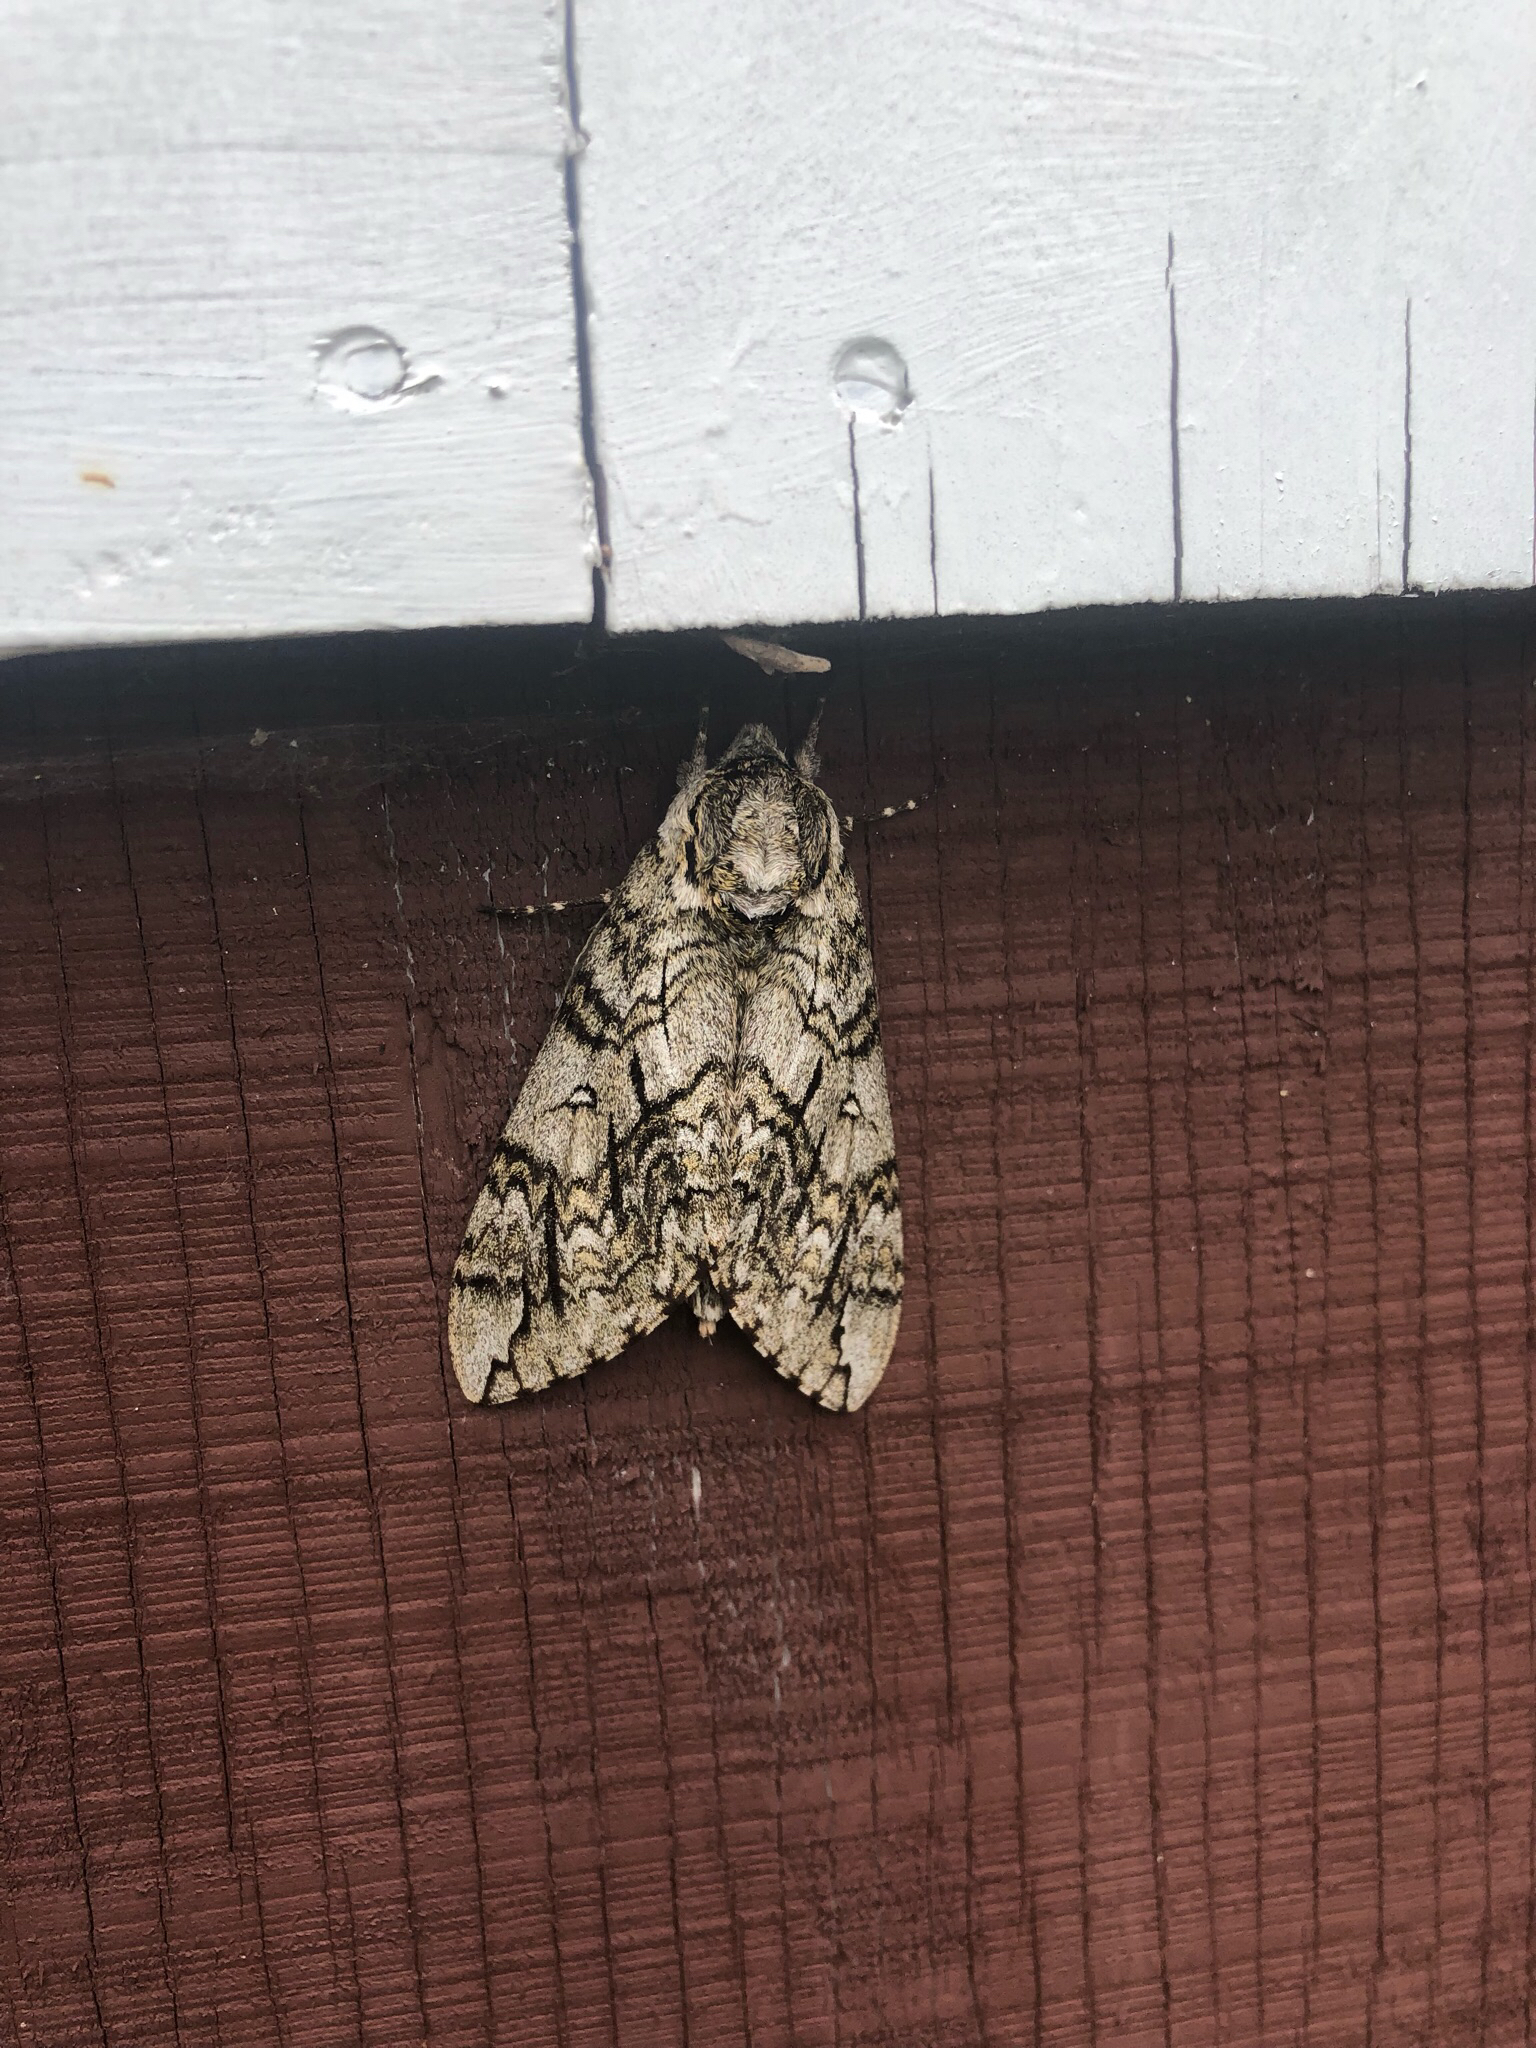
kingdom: Animalia
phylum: Arthropoda
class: Insecta
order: Lepidoptera
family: Sphingidae
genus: Ceratomia
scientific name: Ceratomia undulosa
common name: Waved sphinx
